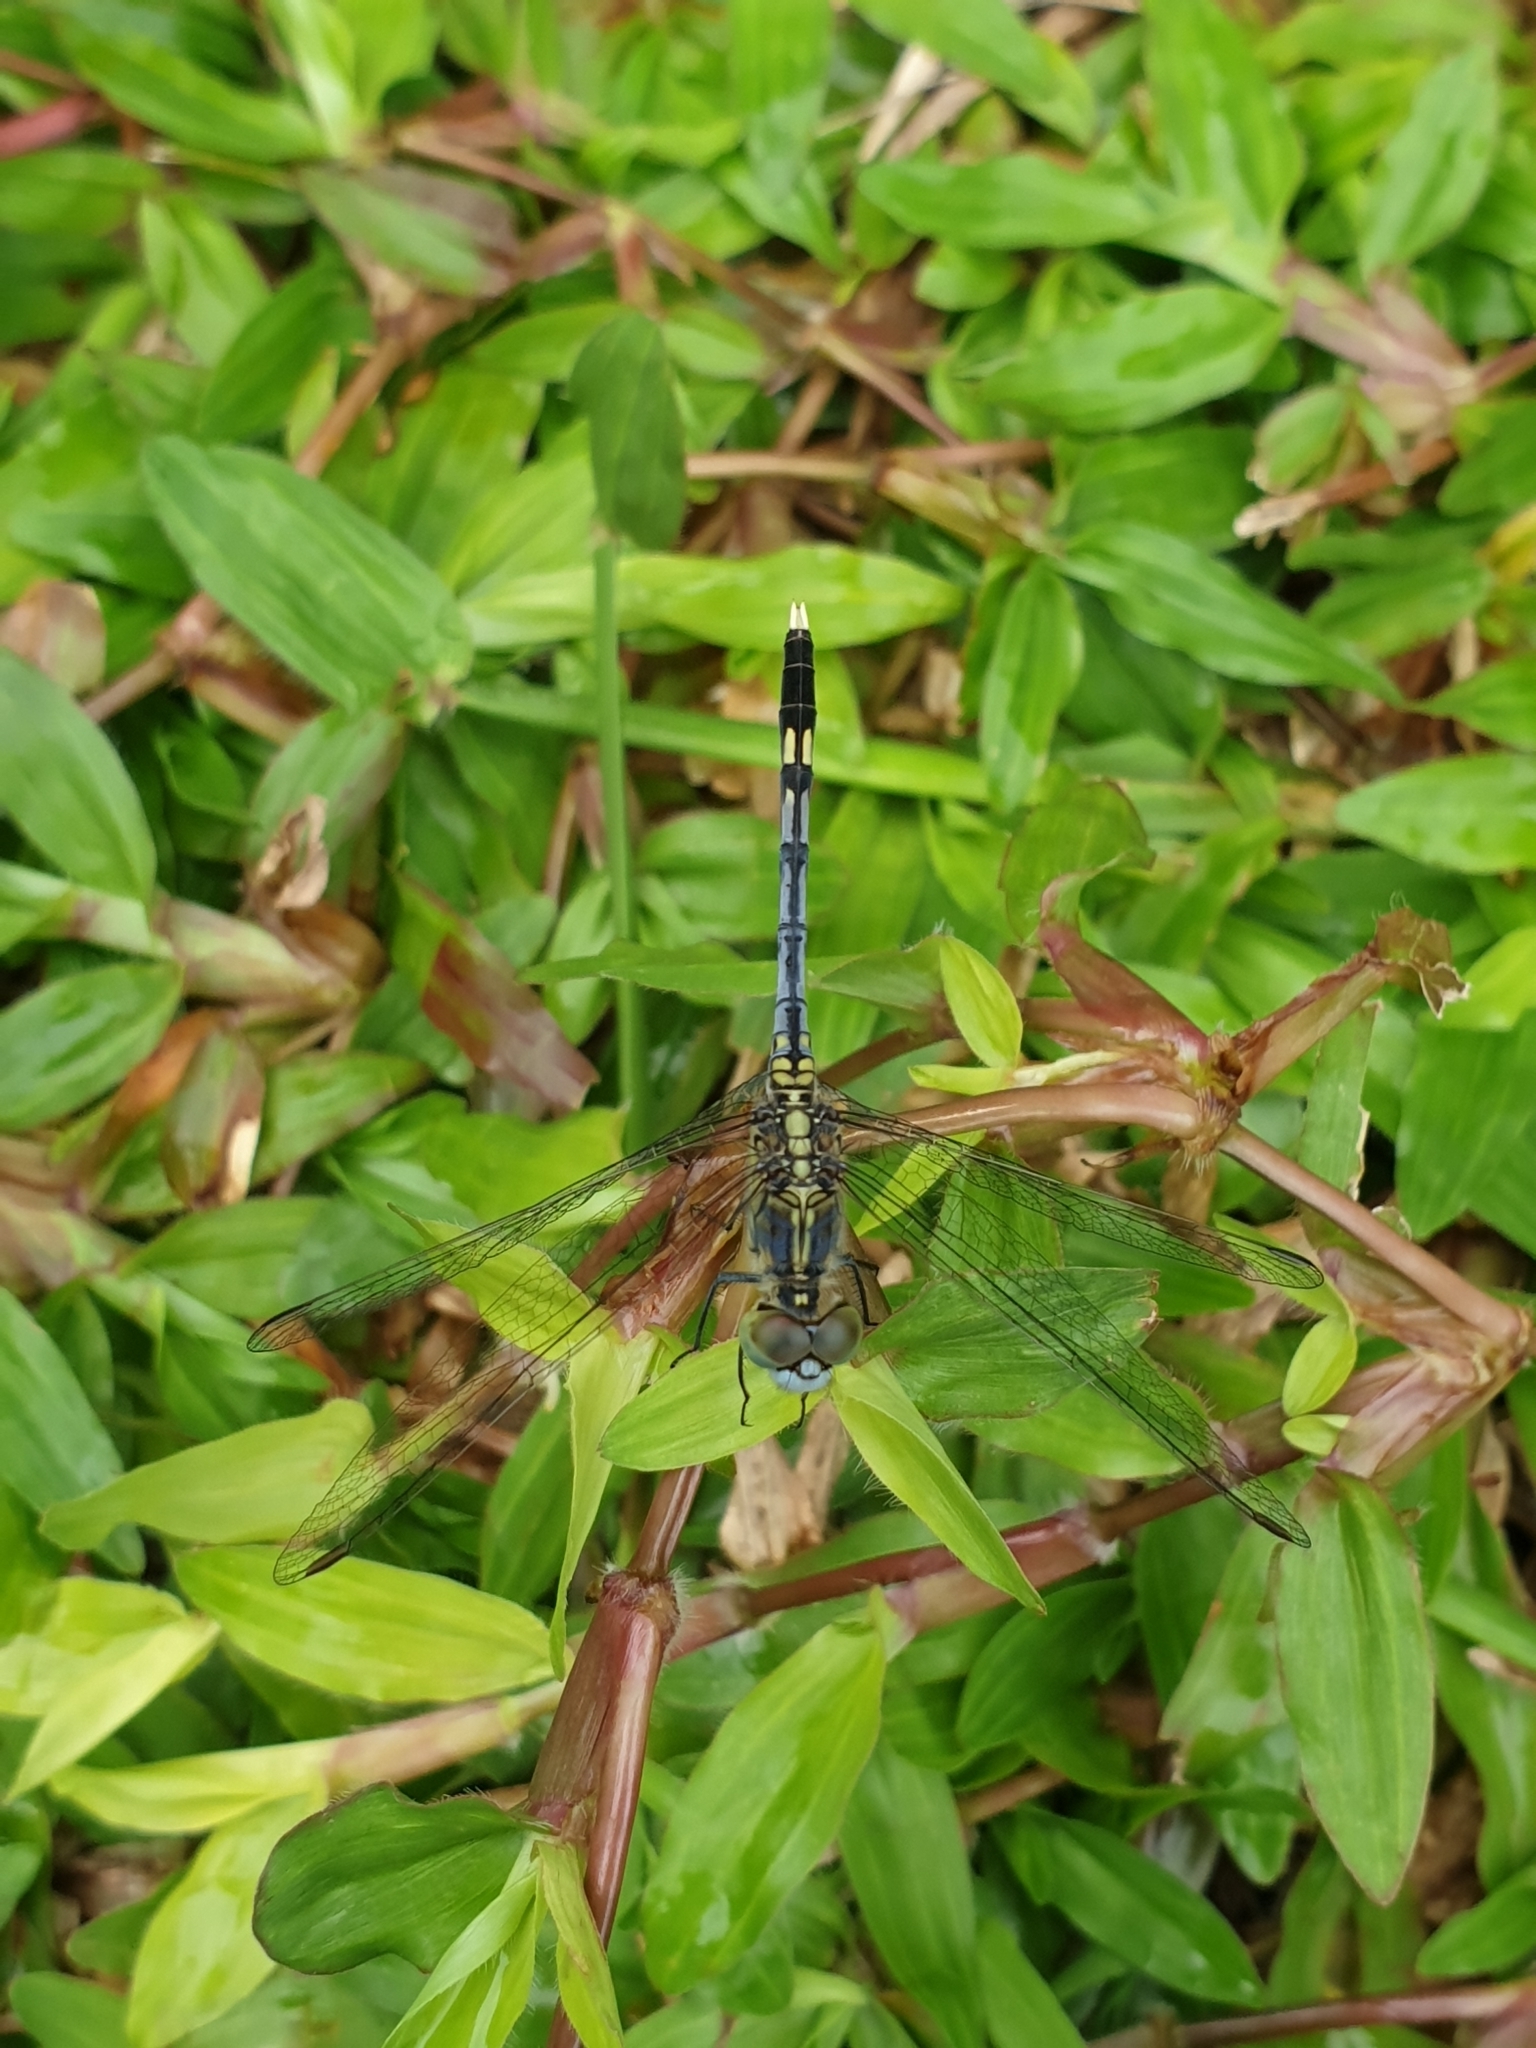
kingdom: Animalia
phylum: Arthropoda
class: Insecta
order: Odonata
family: Libellulidae
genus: Diplacodes
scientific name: Diplacodes trivialis
